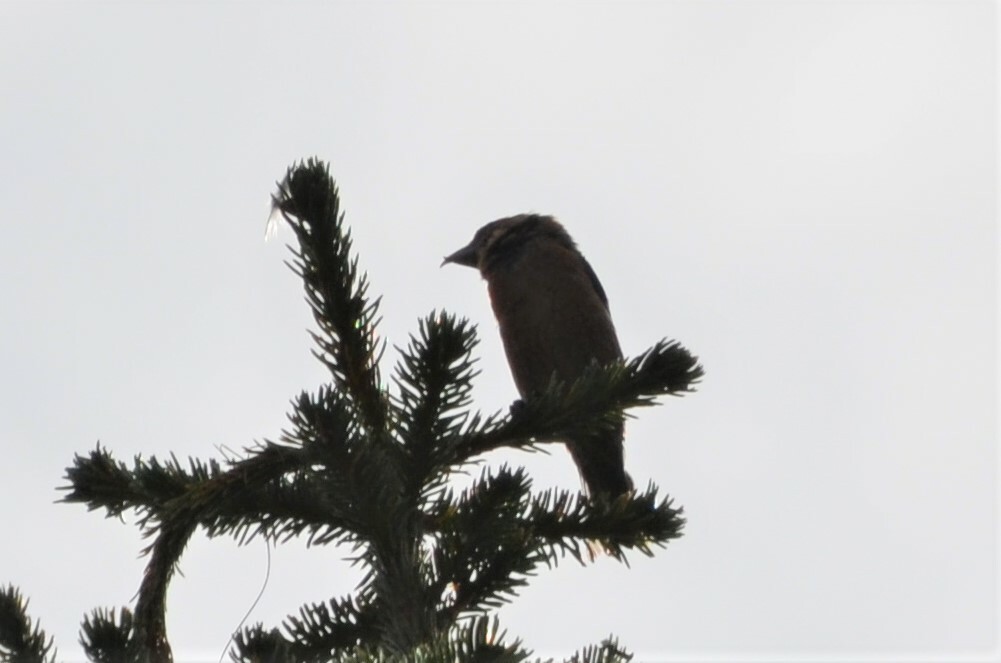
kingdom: Animalia
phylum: Chordata
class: Aves
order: Passeriformes
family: Fringillidae
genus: Loxia
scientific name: Loxia curvirostra
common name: Red crossbill
